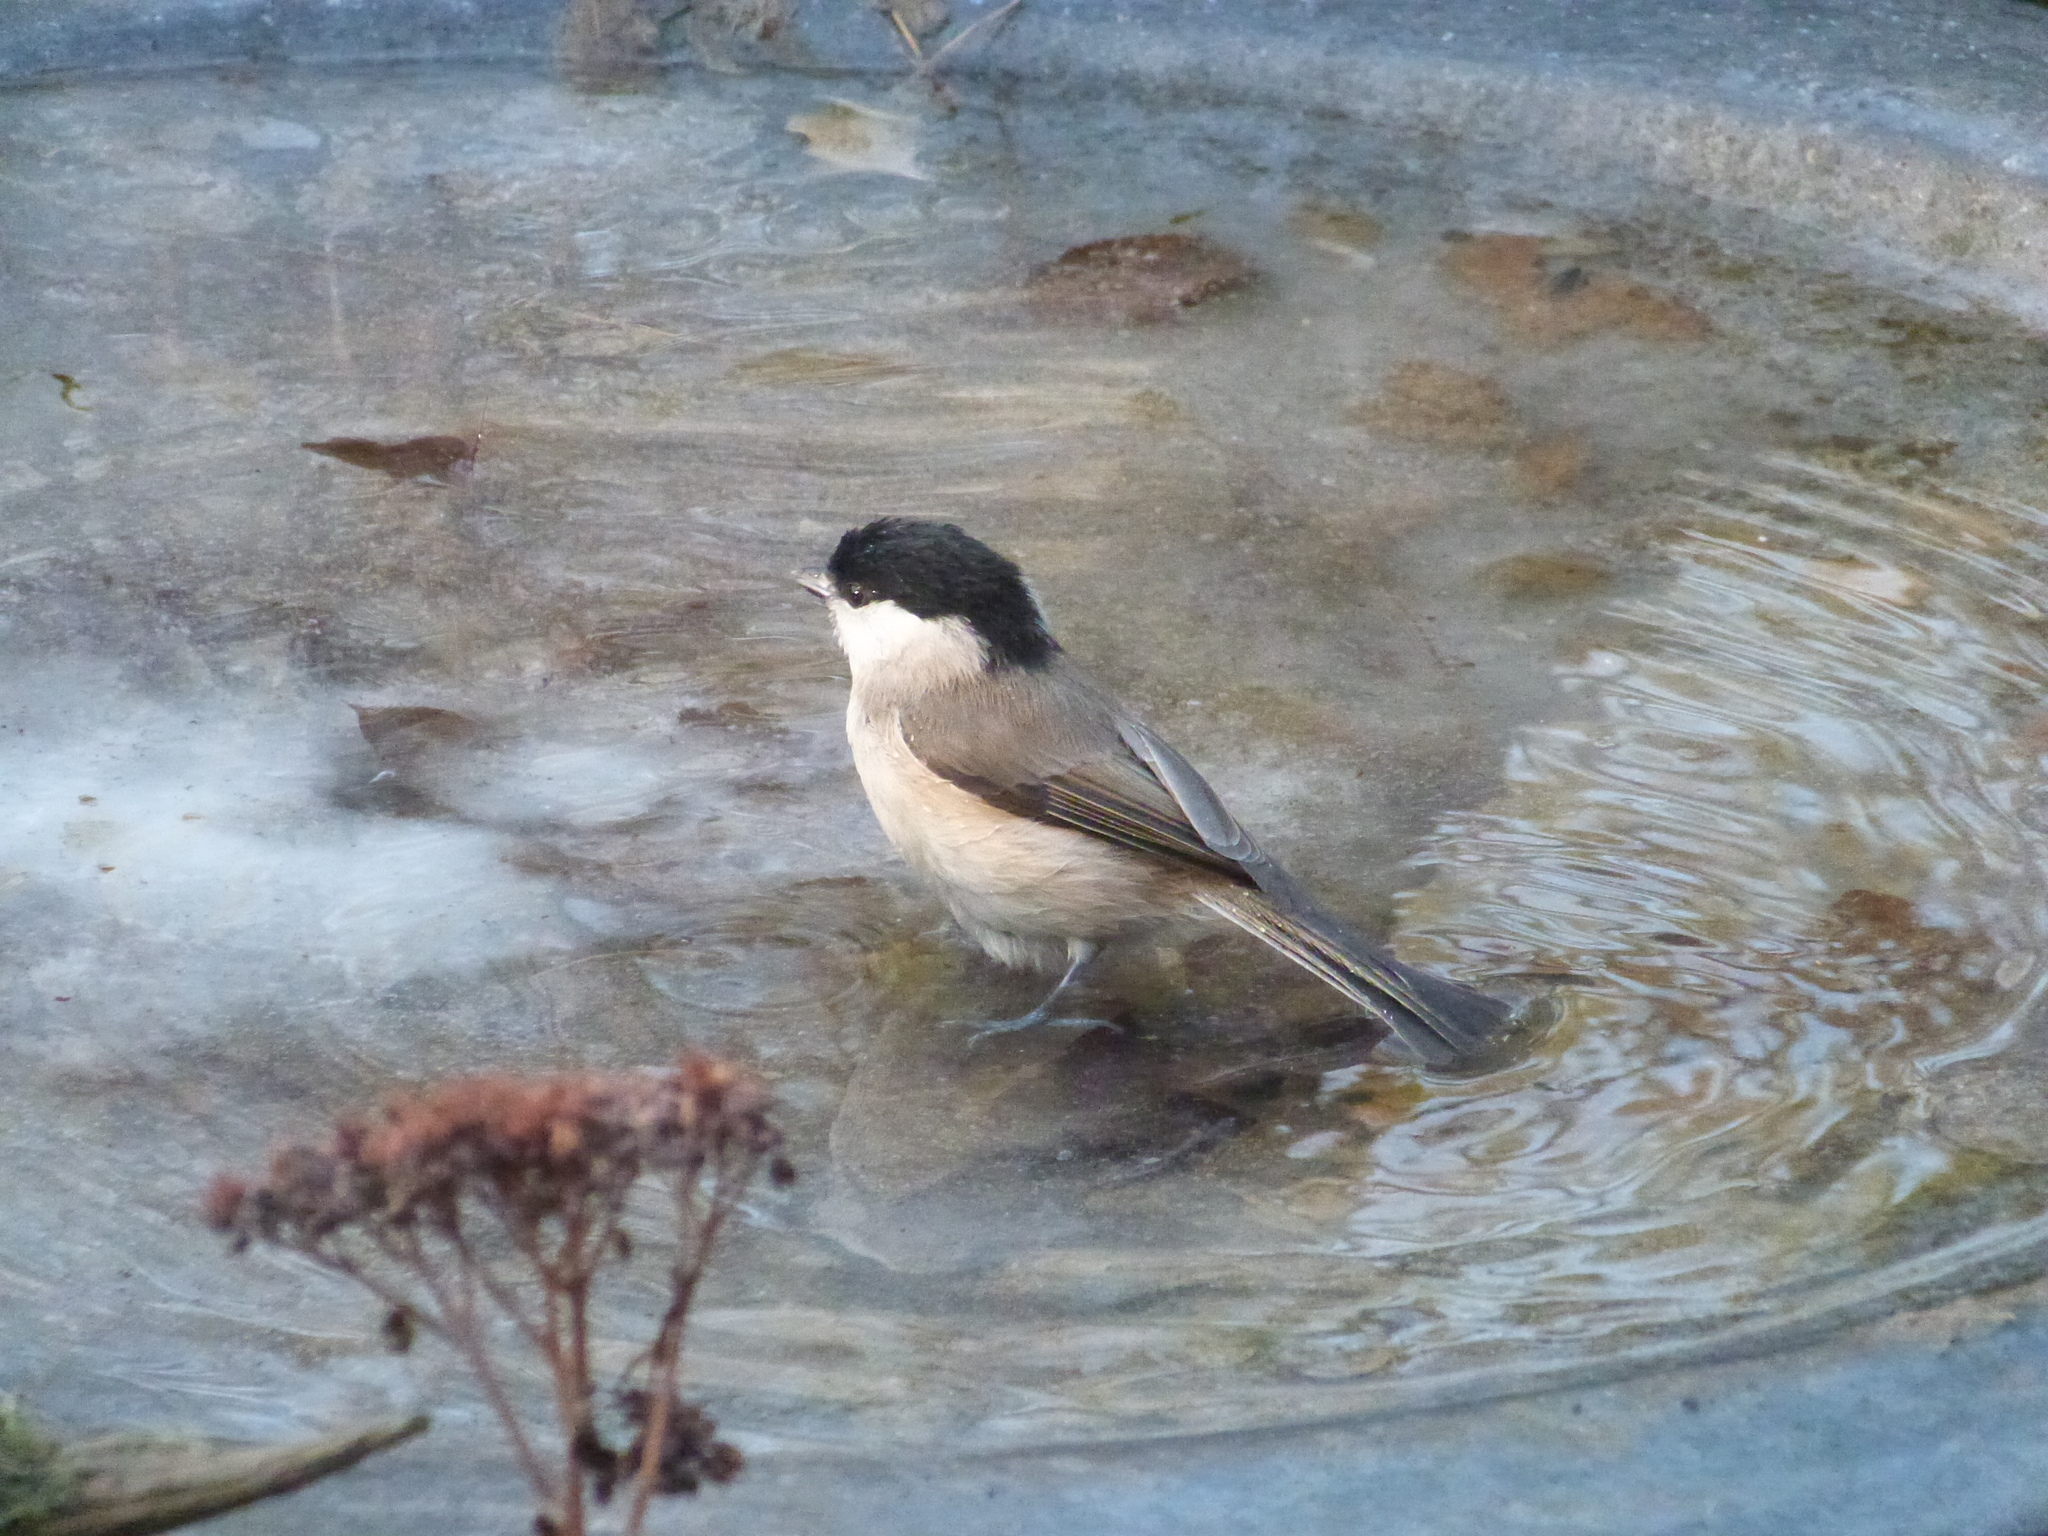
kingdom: Animalia
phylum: Chordata
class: Aves
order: Passeriformes
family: Paridae
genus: Poecile
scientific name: Poecile palustris
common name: Marsh tit
